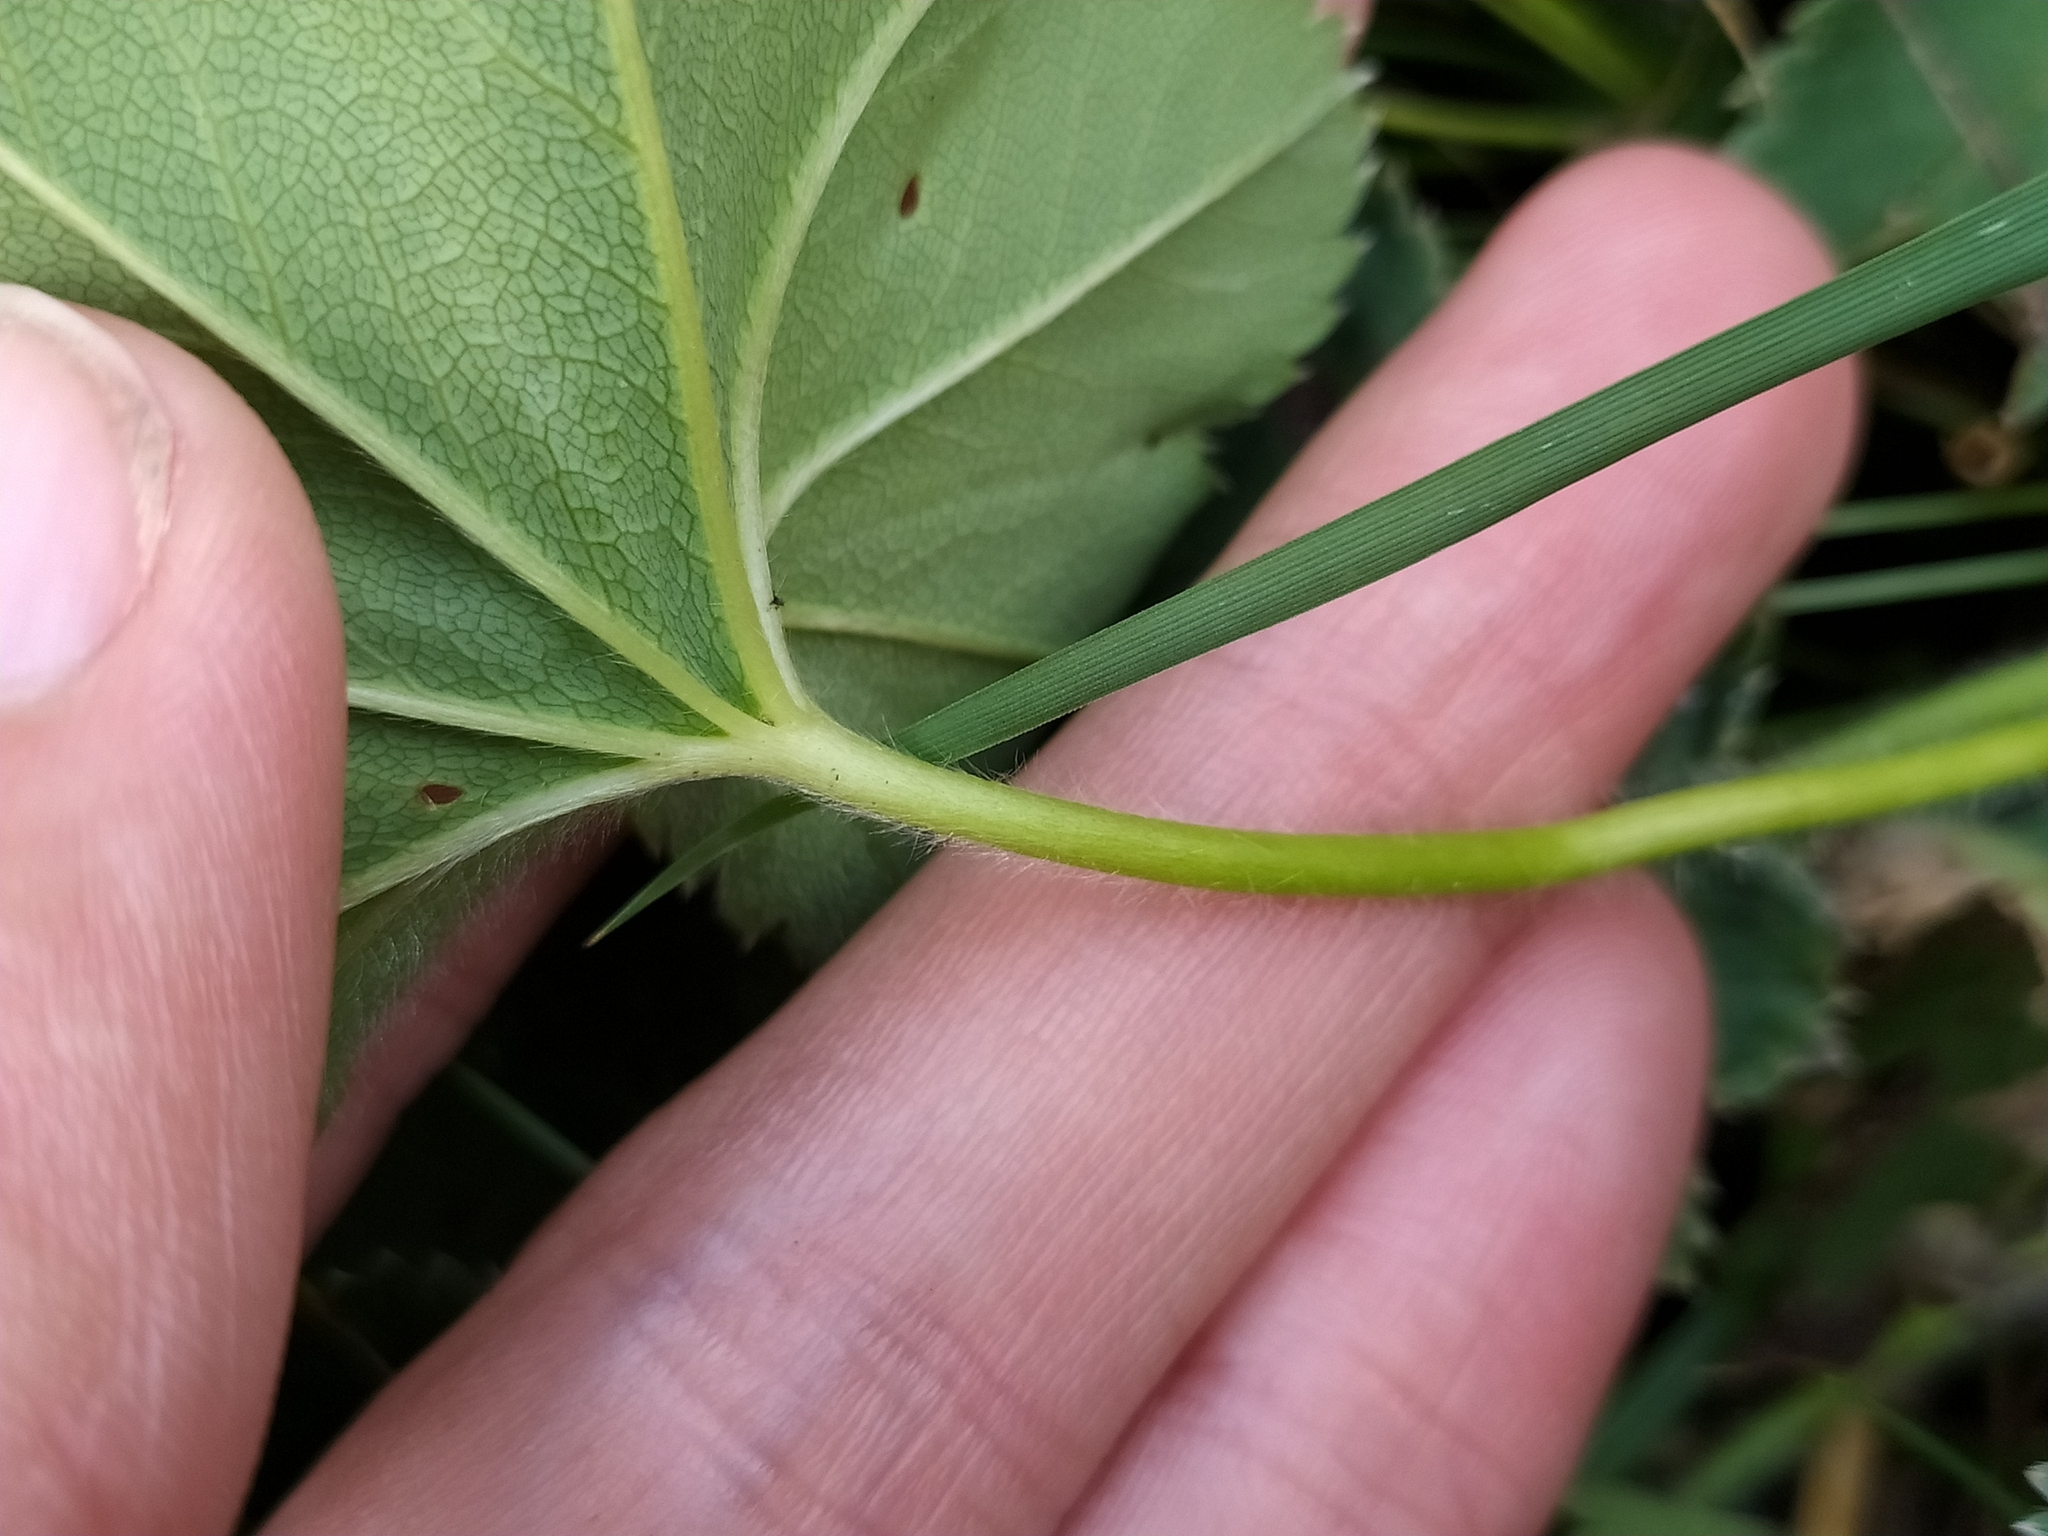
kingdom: Plantae
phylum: Tracheophyta
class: Magnoliopsida
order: Rosales
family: Rosaceae
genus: Alchemilla
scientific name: Alchemilla micans
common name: Gleaming lady's mantle
